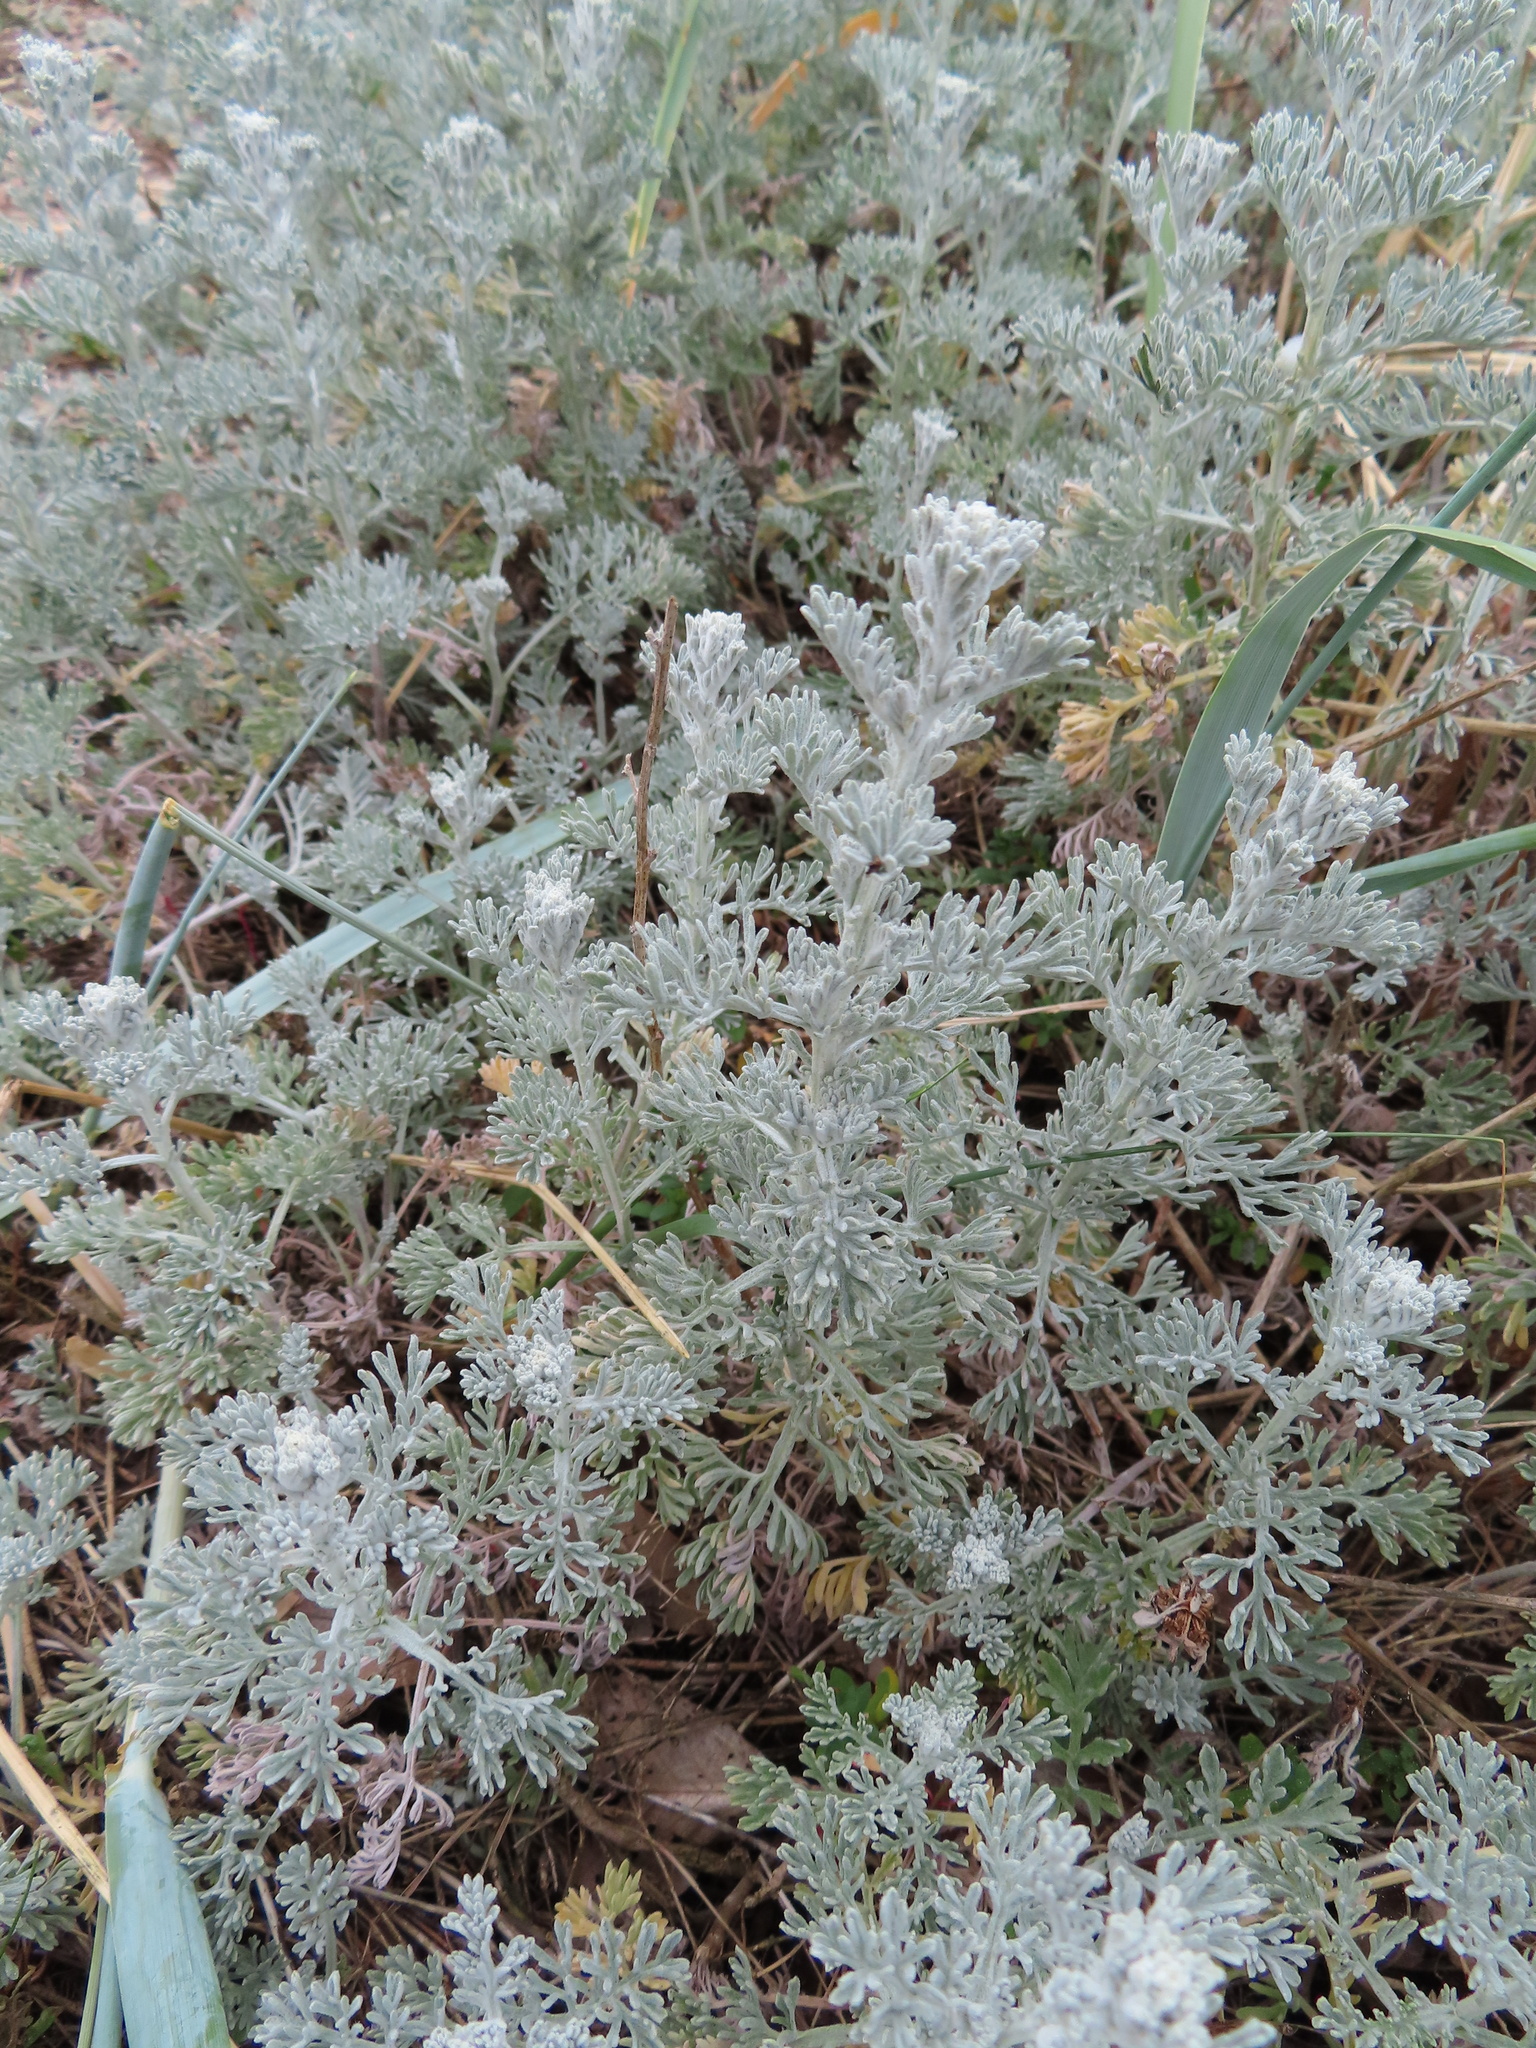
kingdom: Plantae
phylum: Tracheophyta
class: Magnoliopsida
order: Asterales
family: Asteraceae
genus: Artemisia
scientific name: Artemisia maritima
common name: Wormseed
